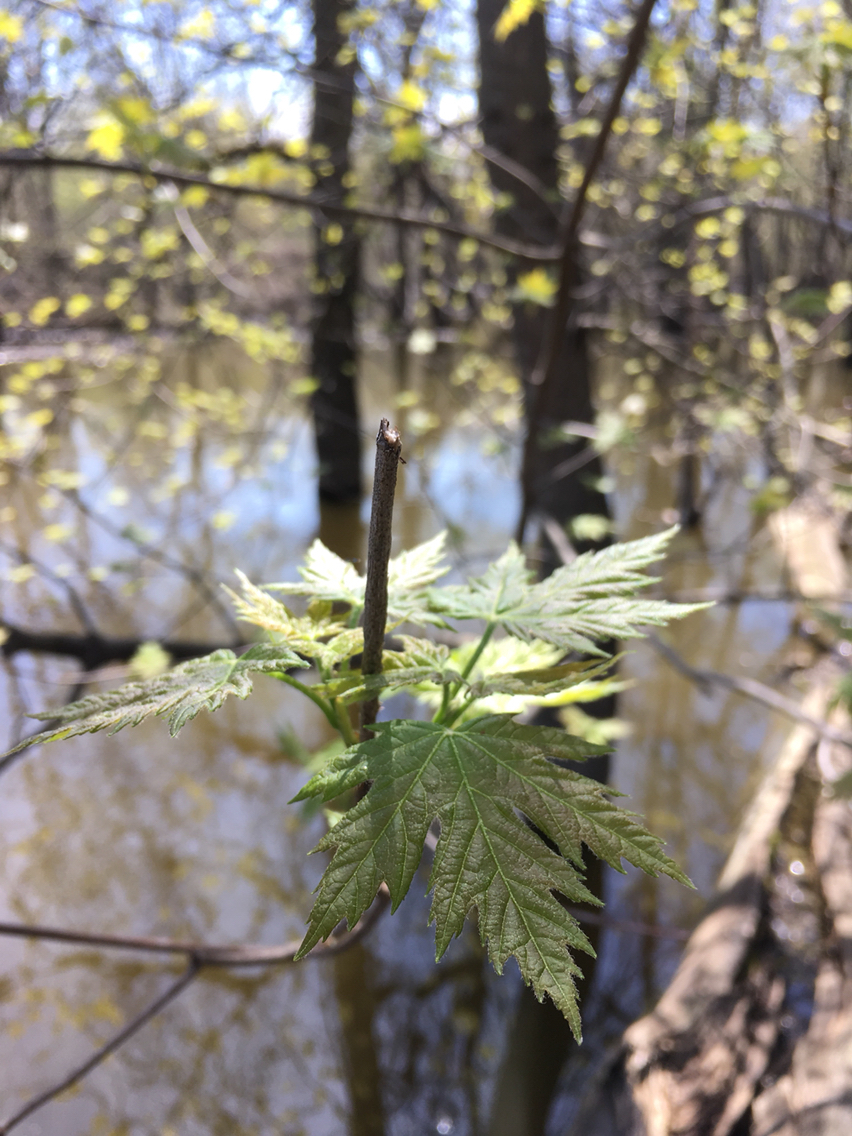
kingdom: Plantae
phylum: Tracheophyta
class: Magnoliopsida
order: Sapindales
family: Sapindaceae
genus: Acer
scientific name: Acer saccharinum
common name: Silver maple
